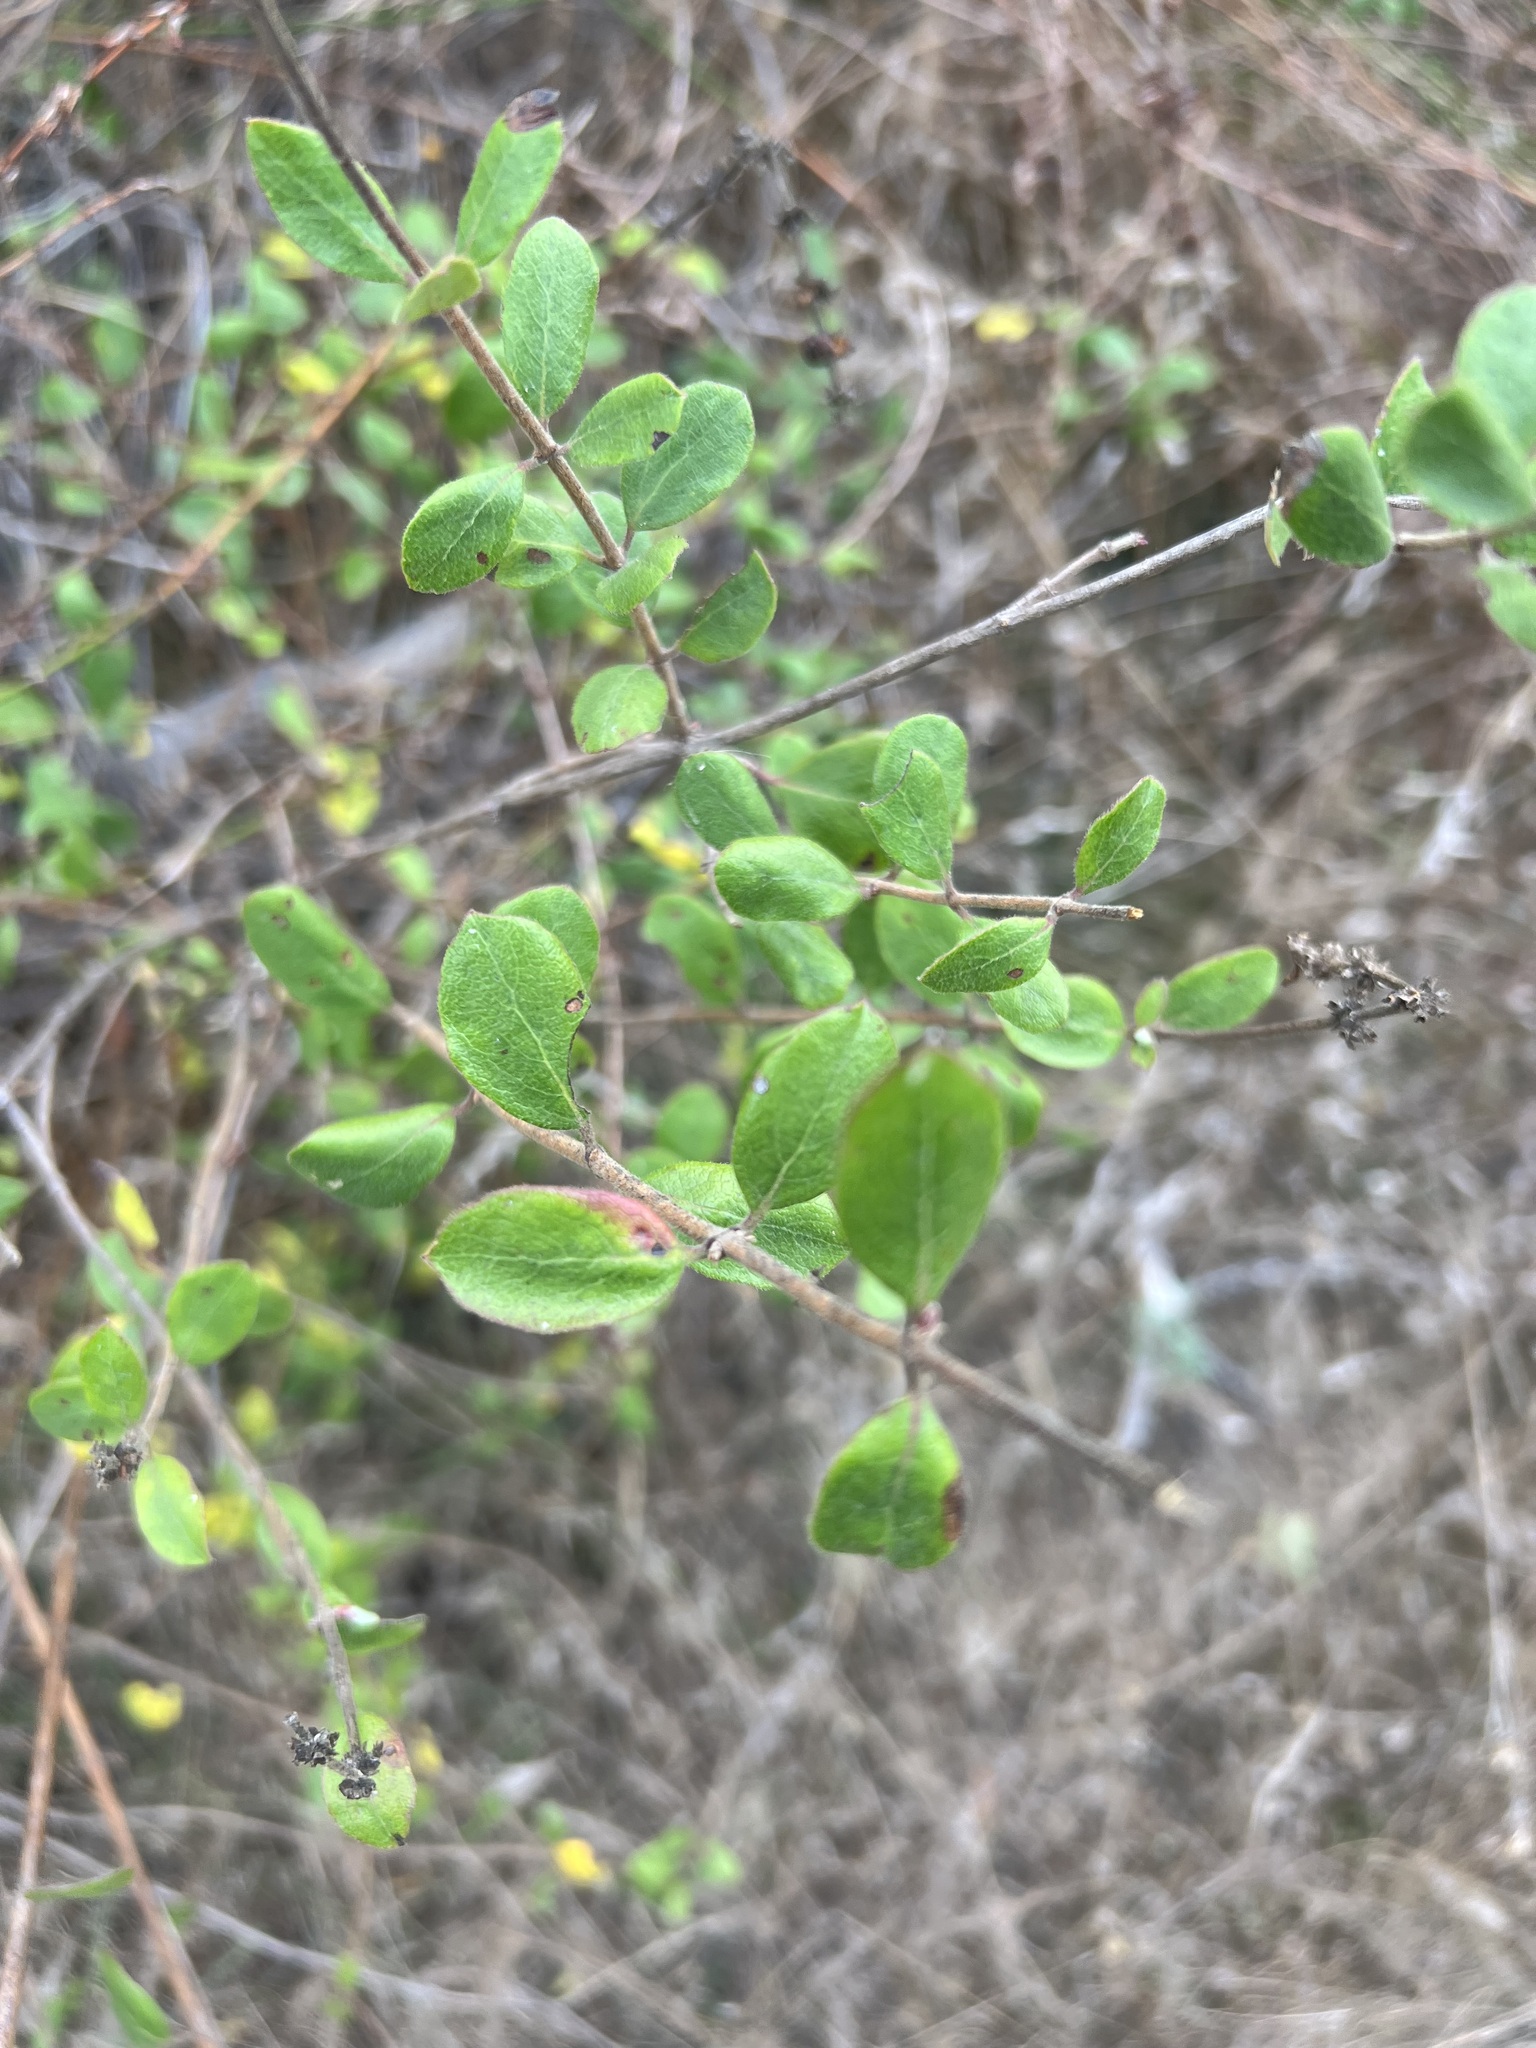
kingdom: Plantae
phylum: Tracheophyta
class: Magnoliopsida
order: Dipsacales
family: Caprifoliaceae
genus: Lonicera
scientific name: Lonicera subspicata
